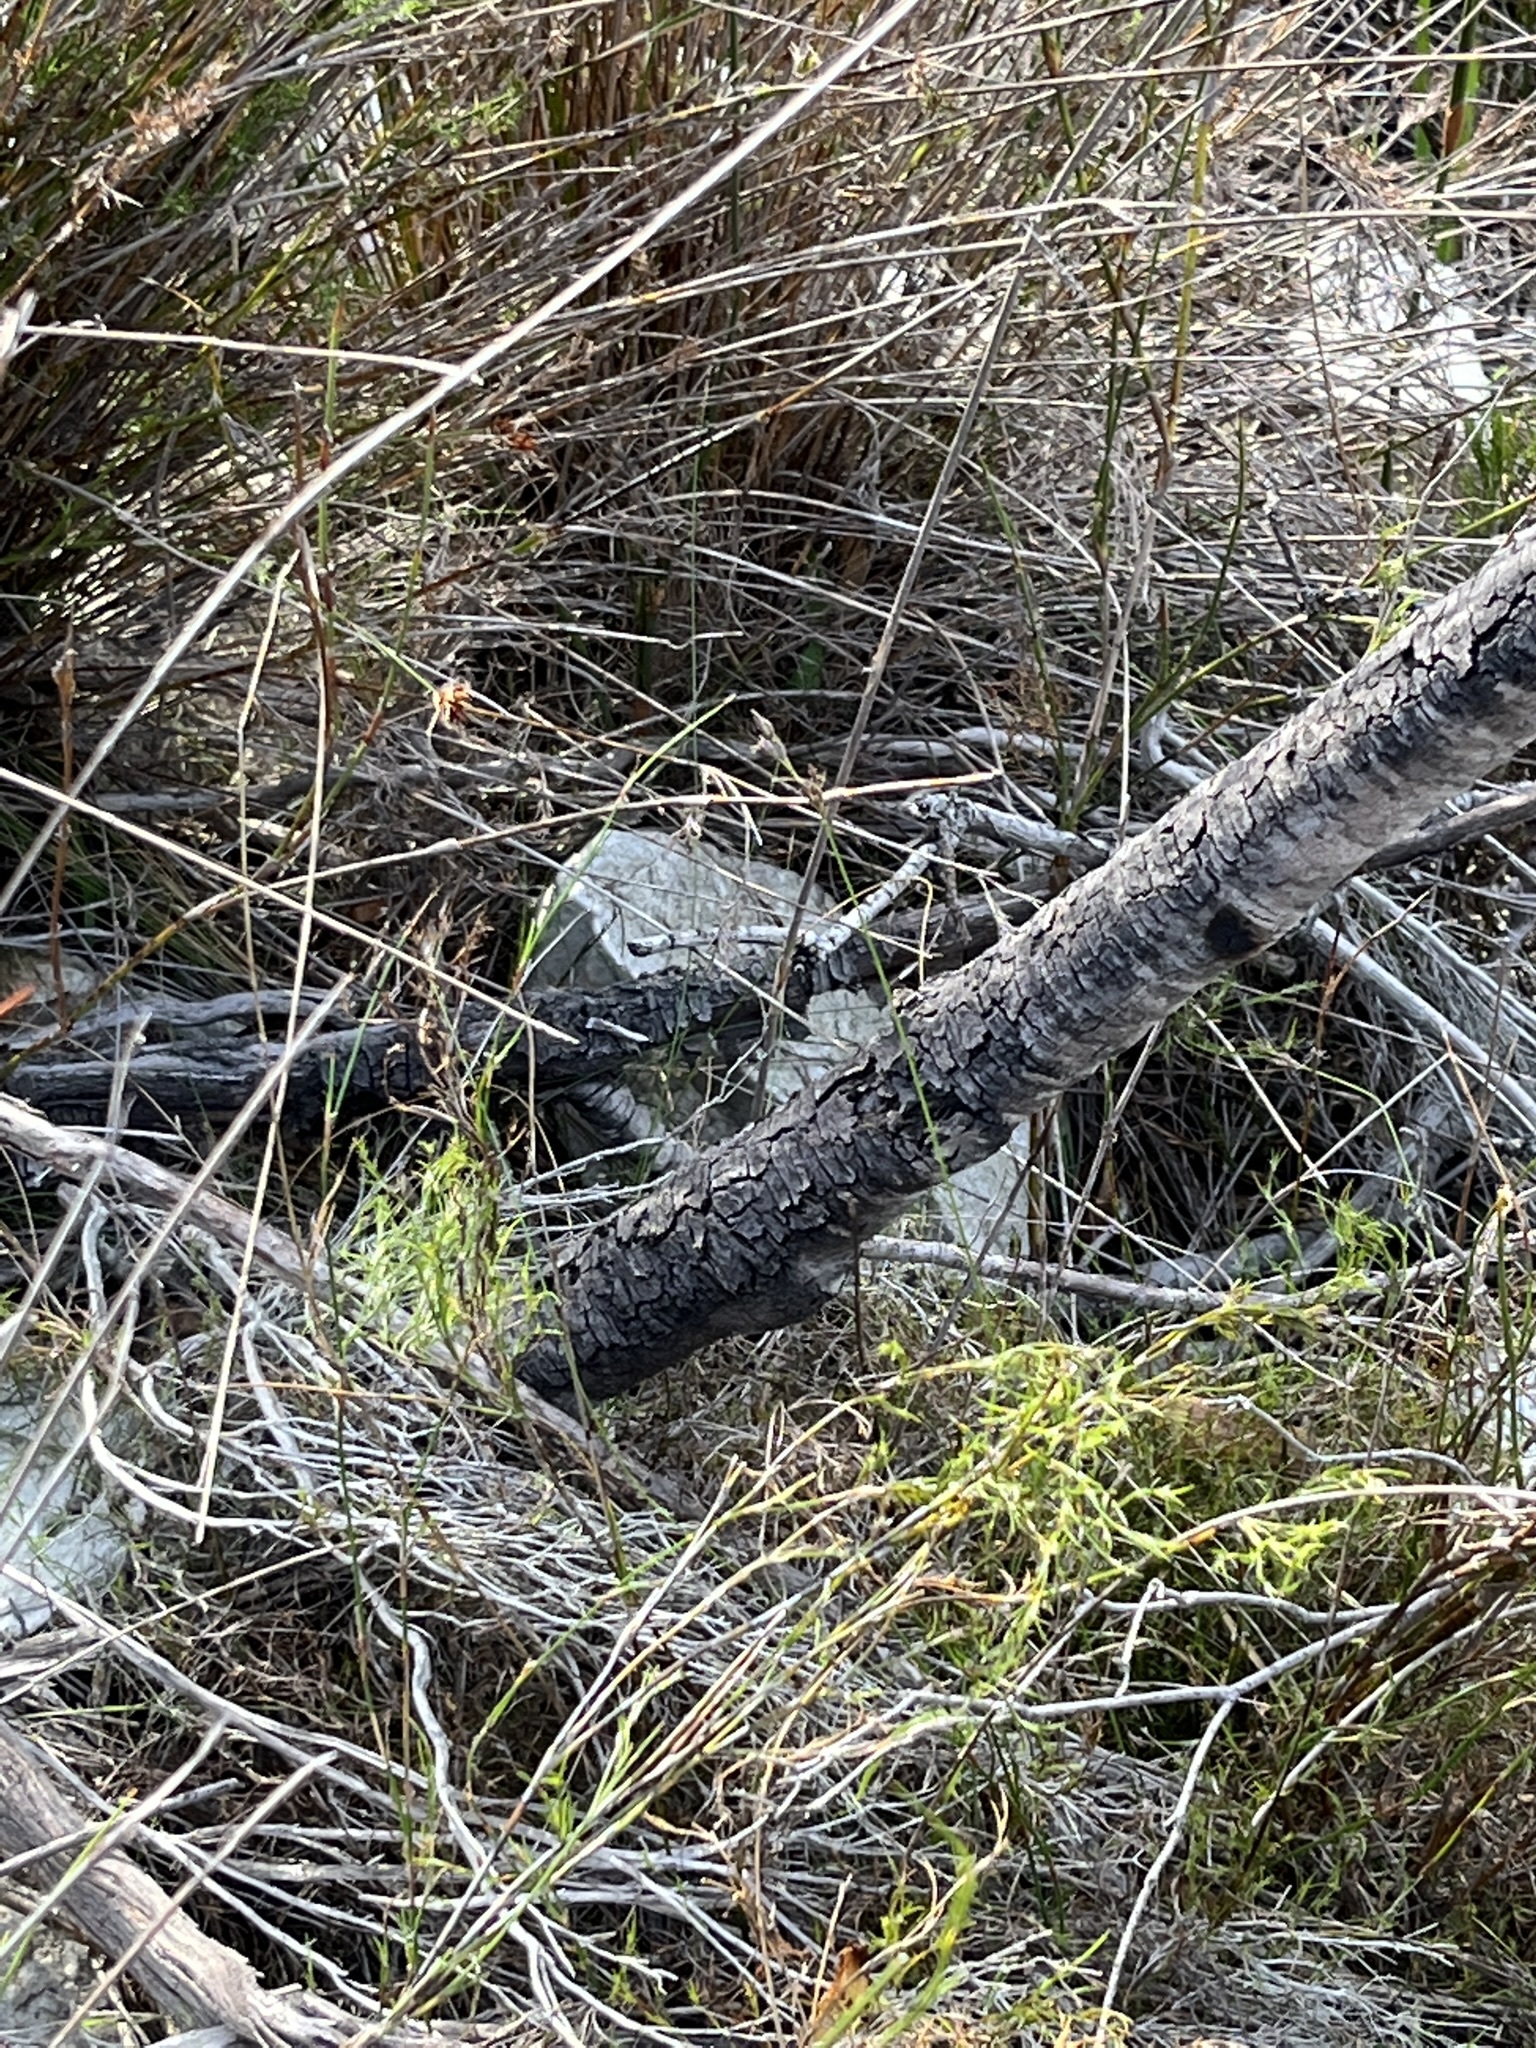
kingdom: Plantae
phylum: Tracheophyta
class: Magnoliopsida
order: Proteales
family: Proteaceae
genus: Leucadendron
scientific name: Leucadendron gandogeri
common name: Broad-leaf conebush
